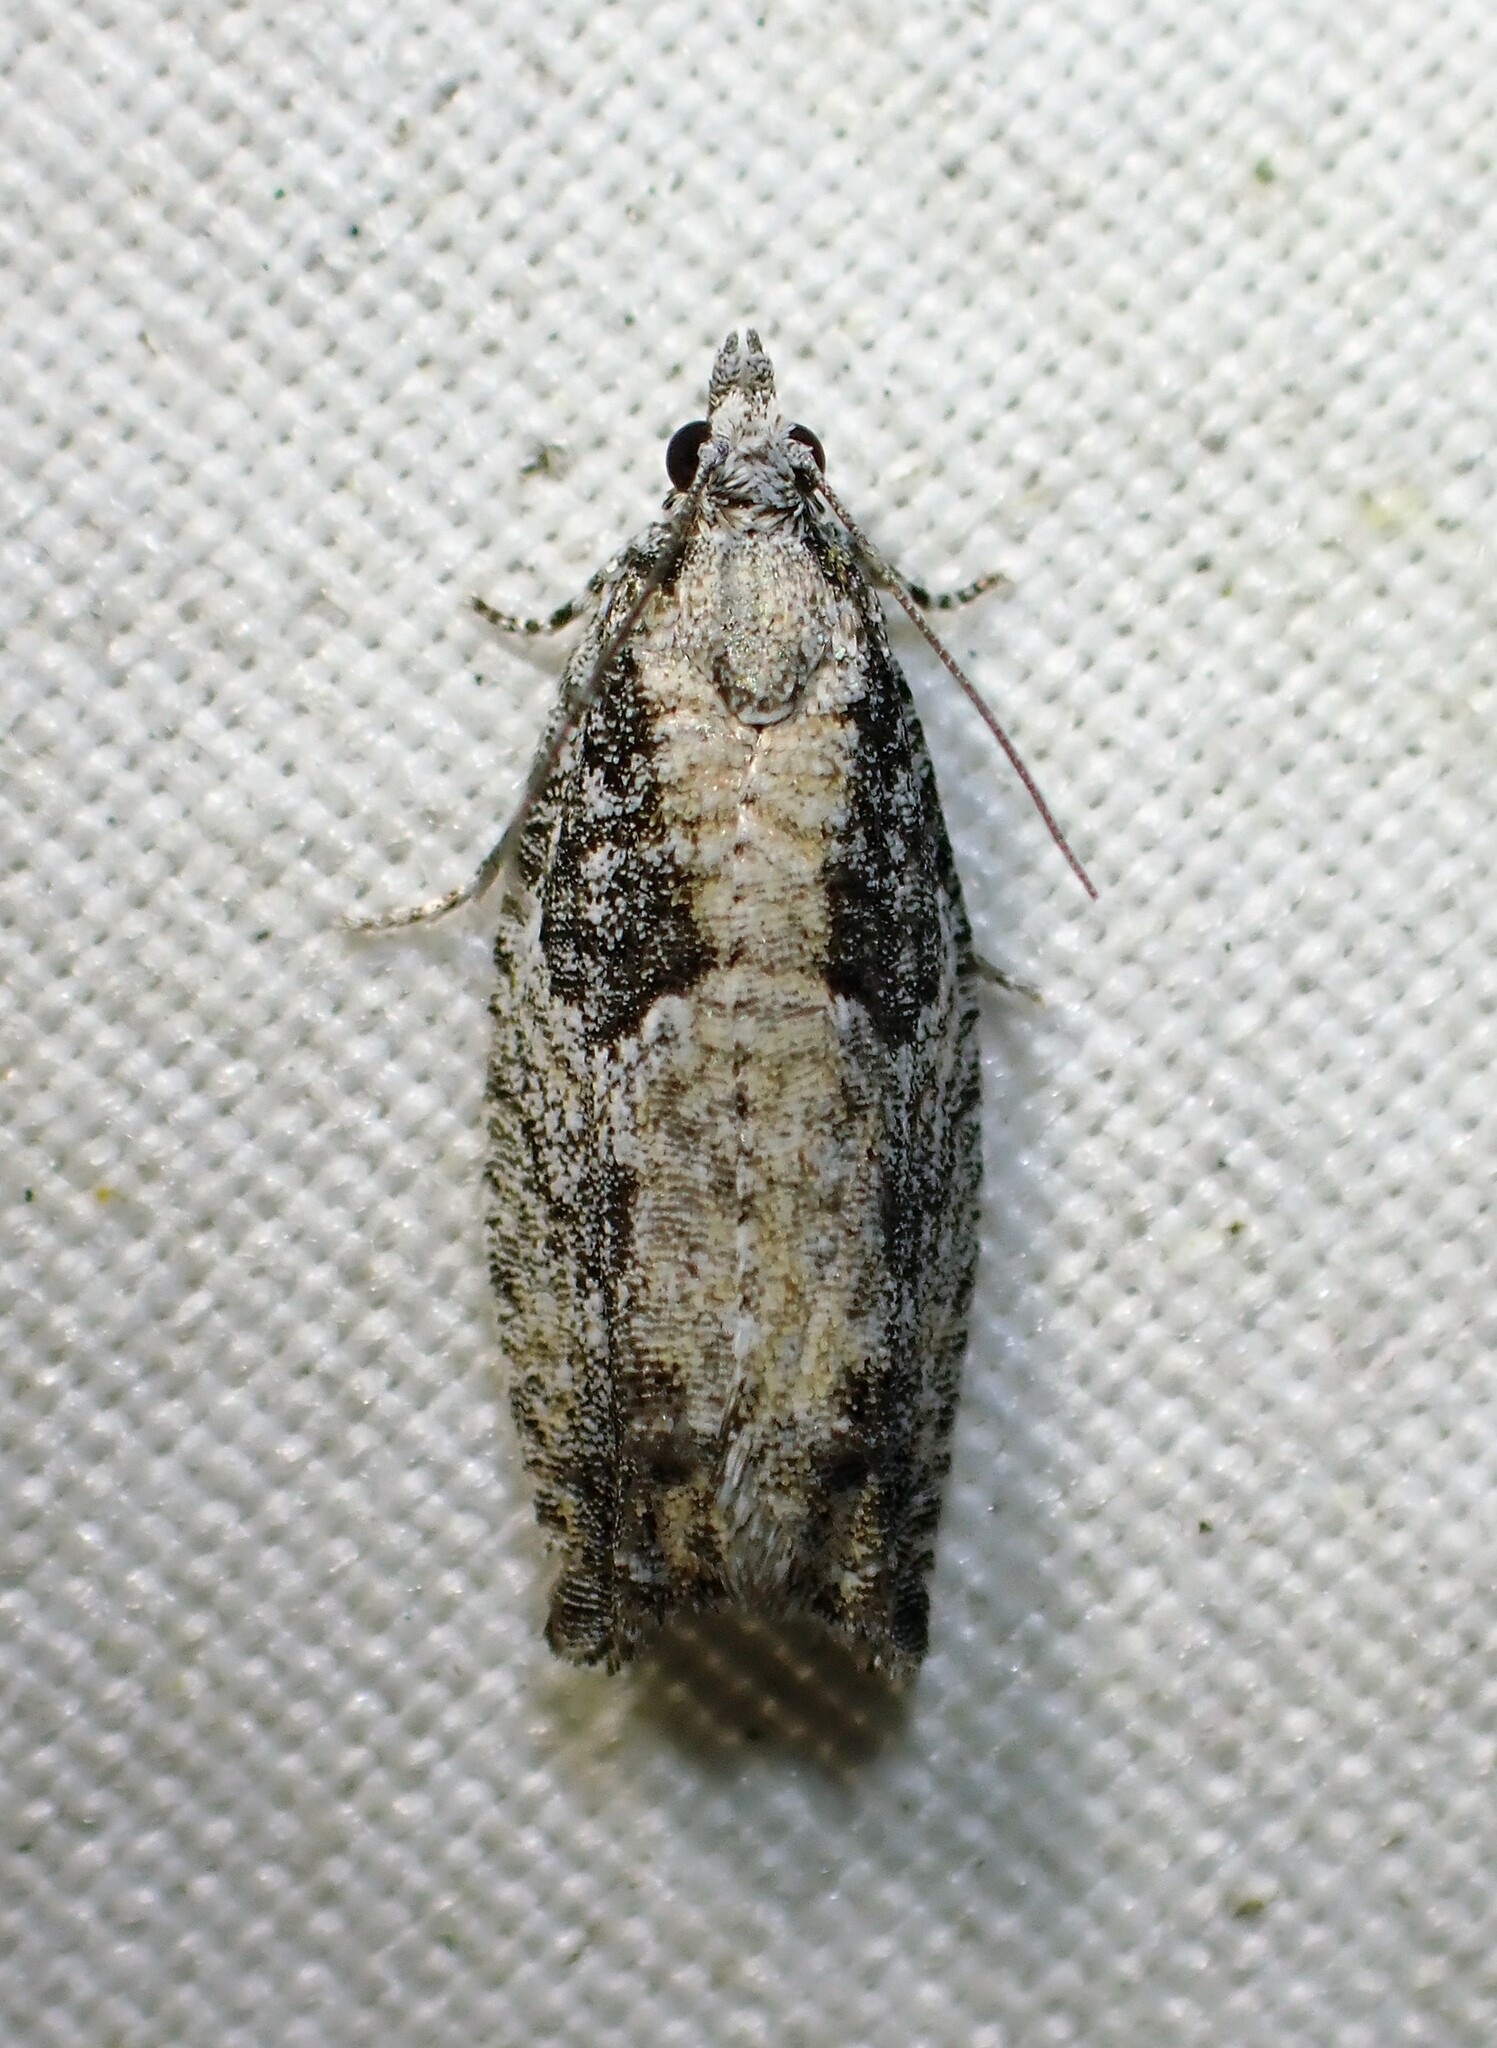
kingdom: Animalia
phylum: Arthropoda
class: Insecta
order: Lepidoptera
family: Tortricidae
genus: Epinotia
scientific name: Epinotia cinereana
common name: Grey aspen bell
